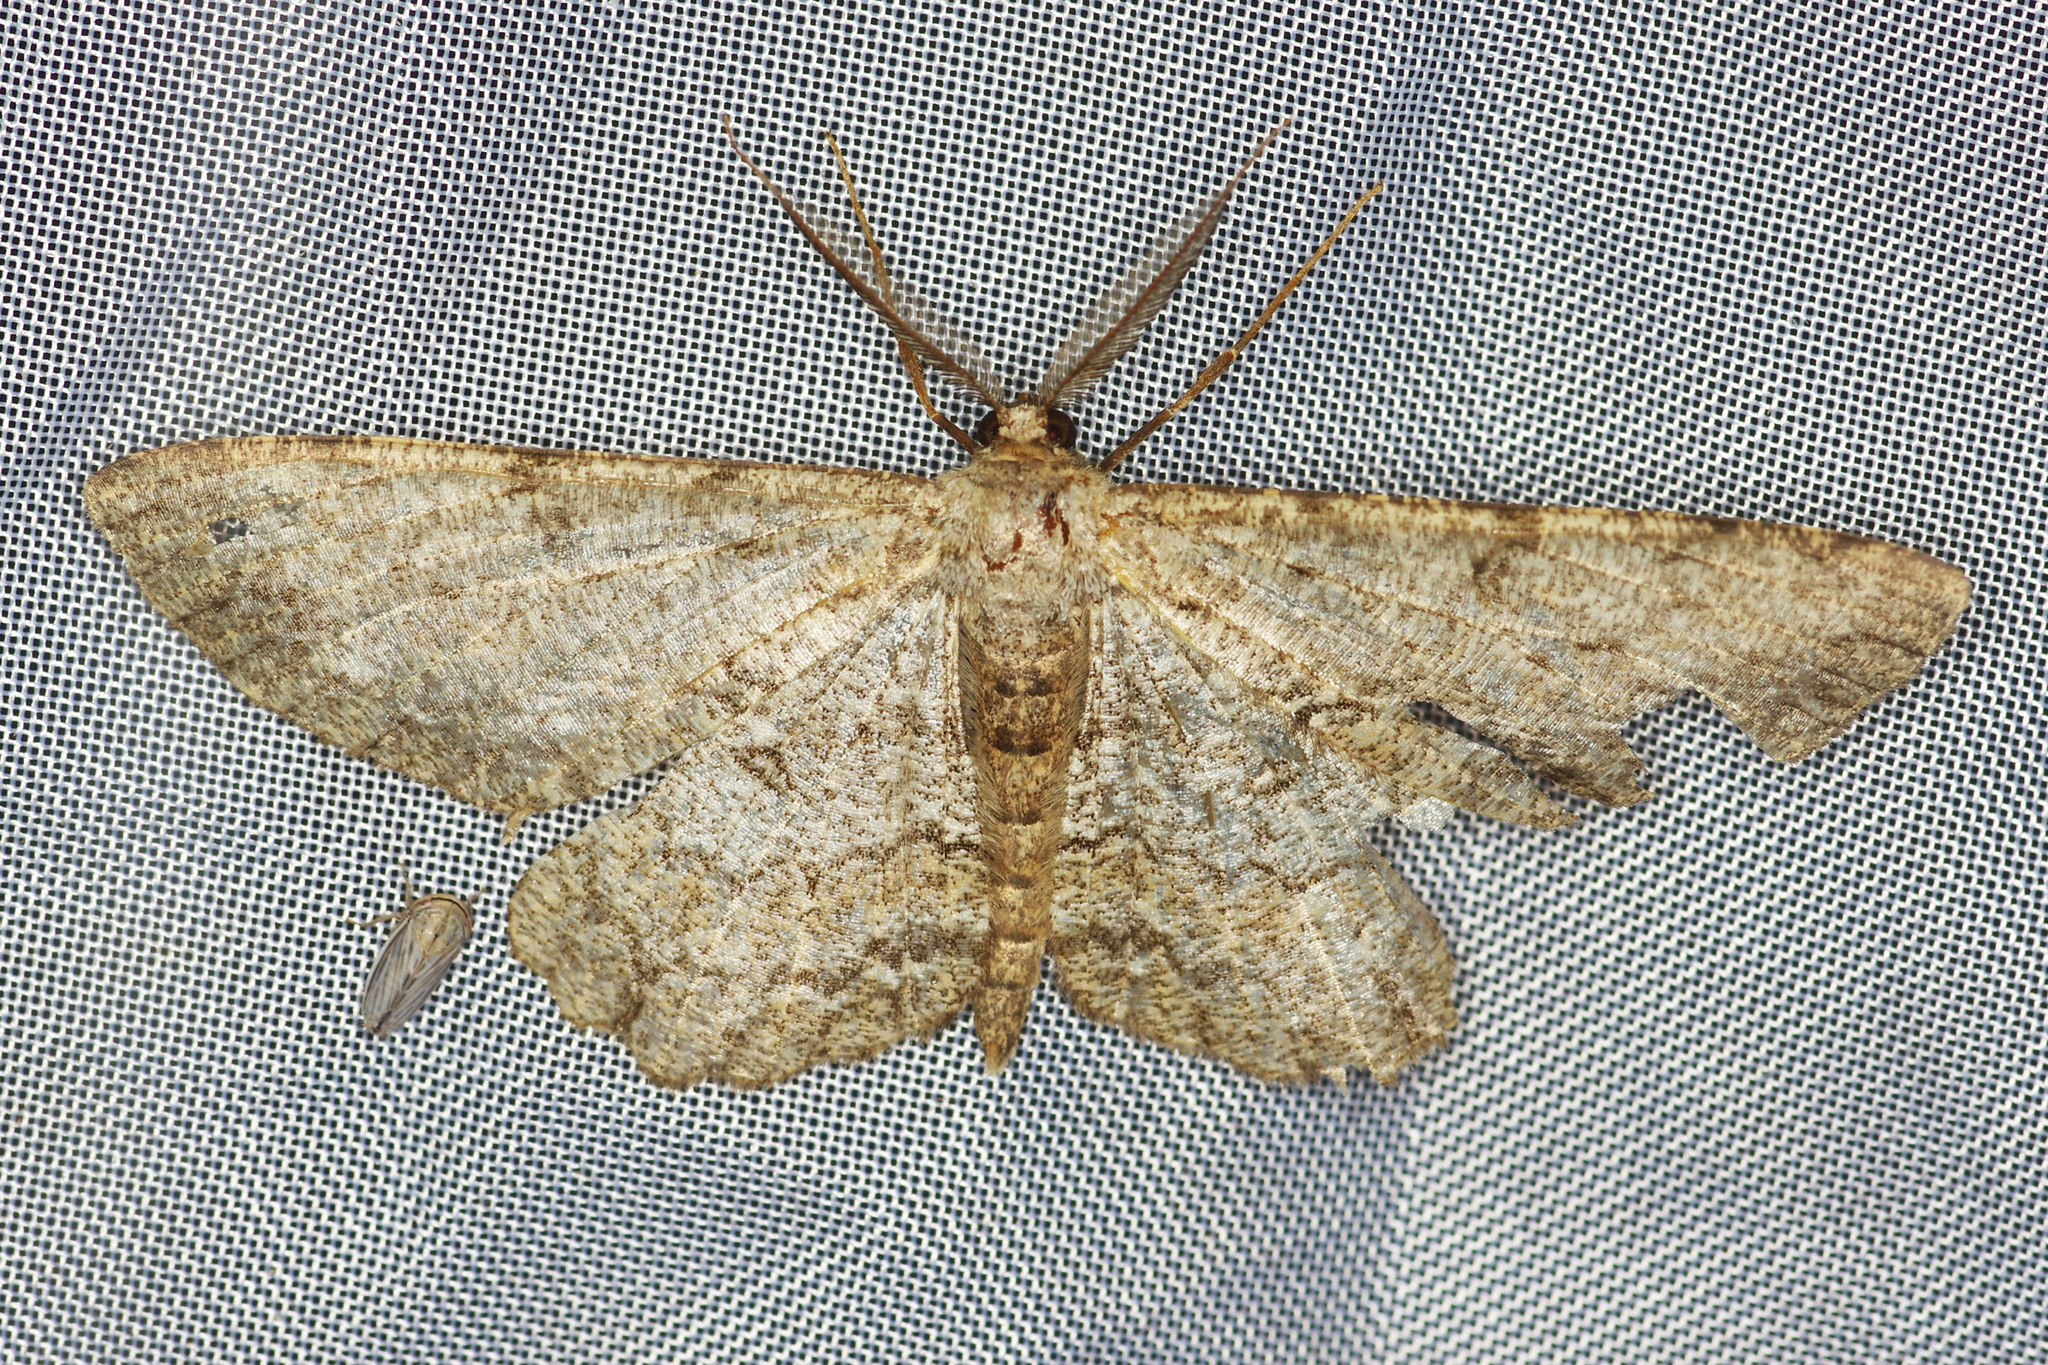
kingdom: Animalia
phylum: Arthropoda
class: Insecta
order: Lepidoptera
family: Geometridae
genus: Hypomecis
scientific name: Hypomecis punctinalis
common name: Pale oak beauty
